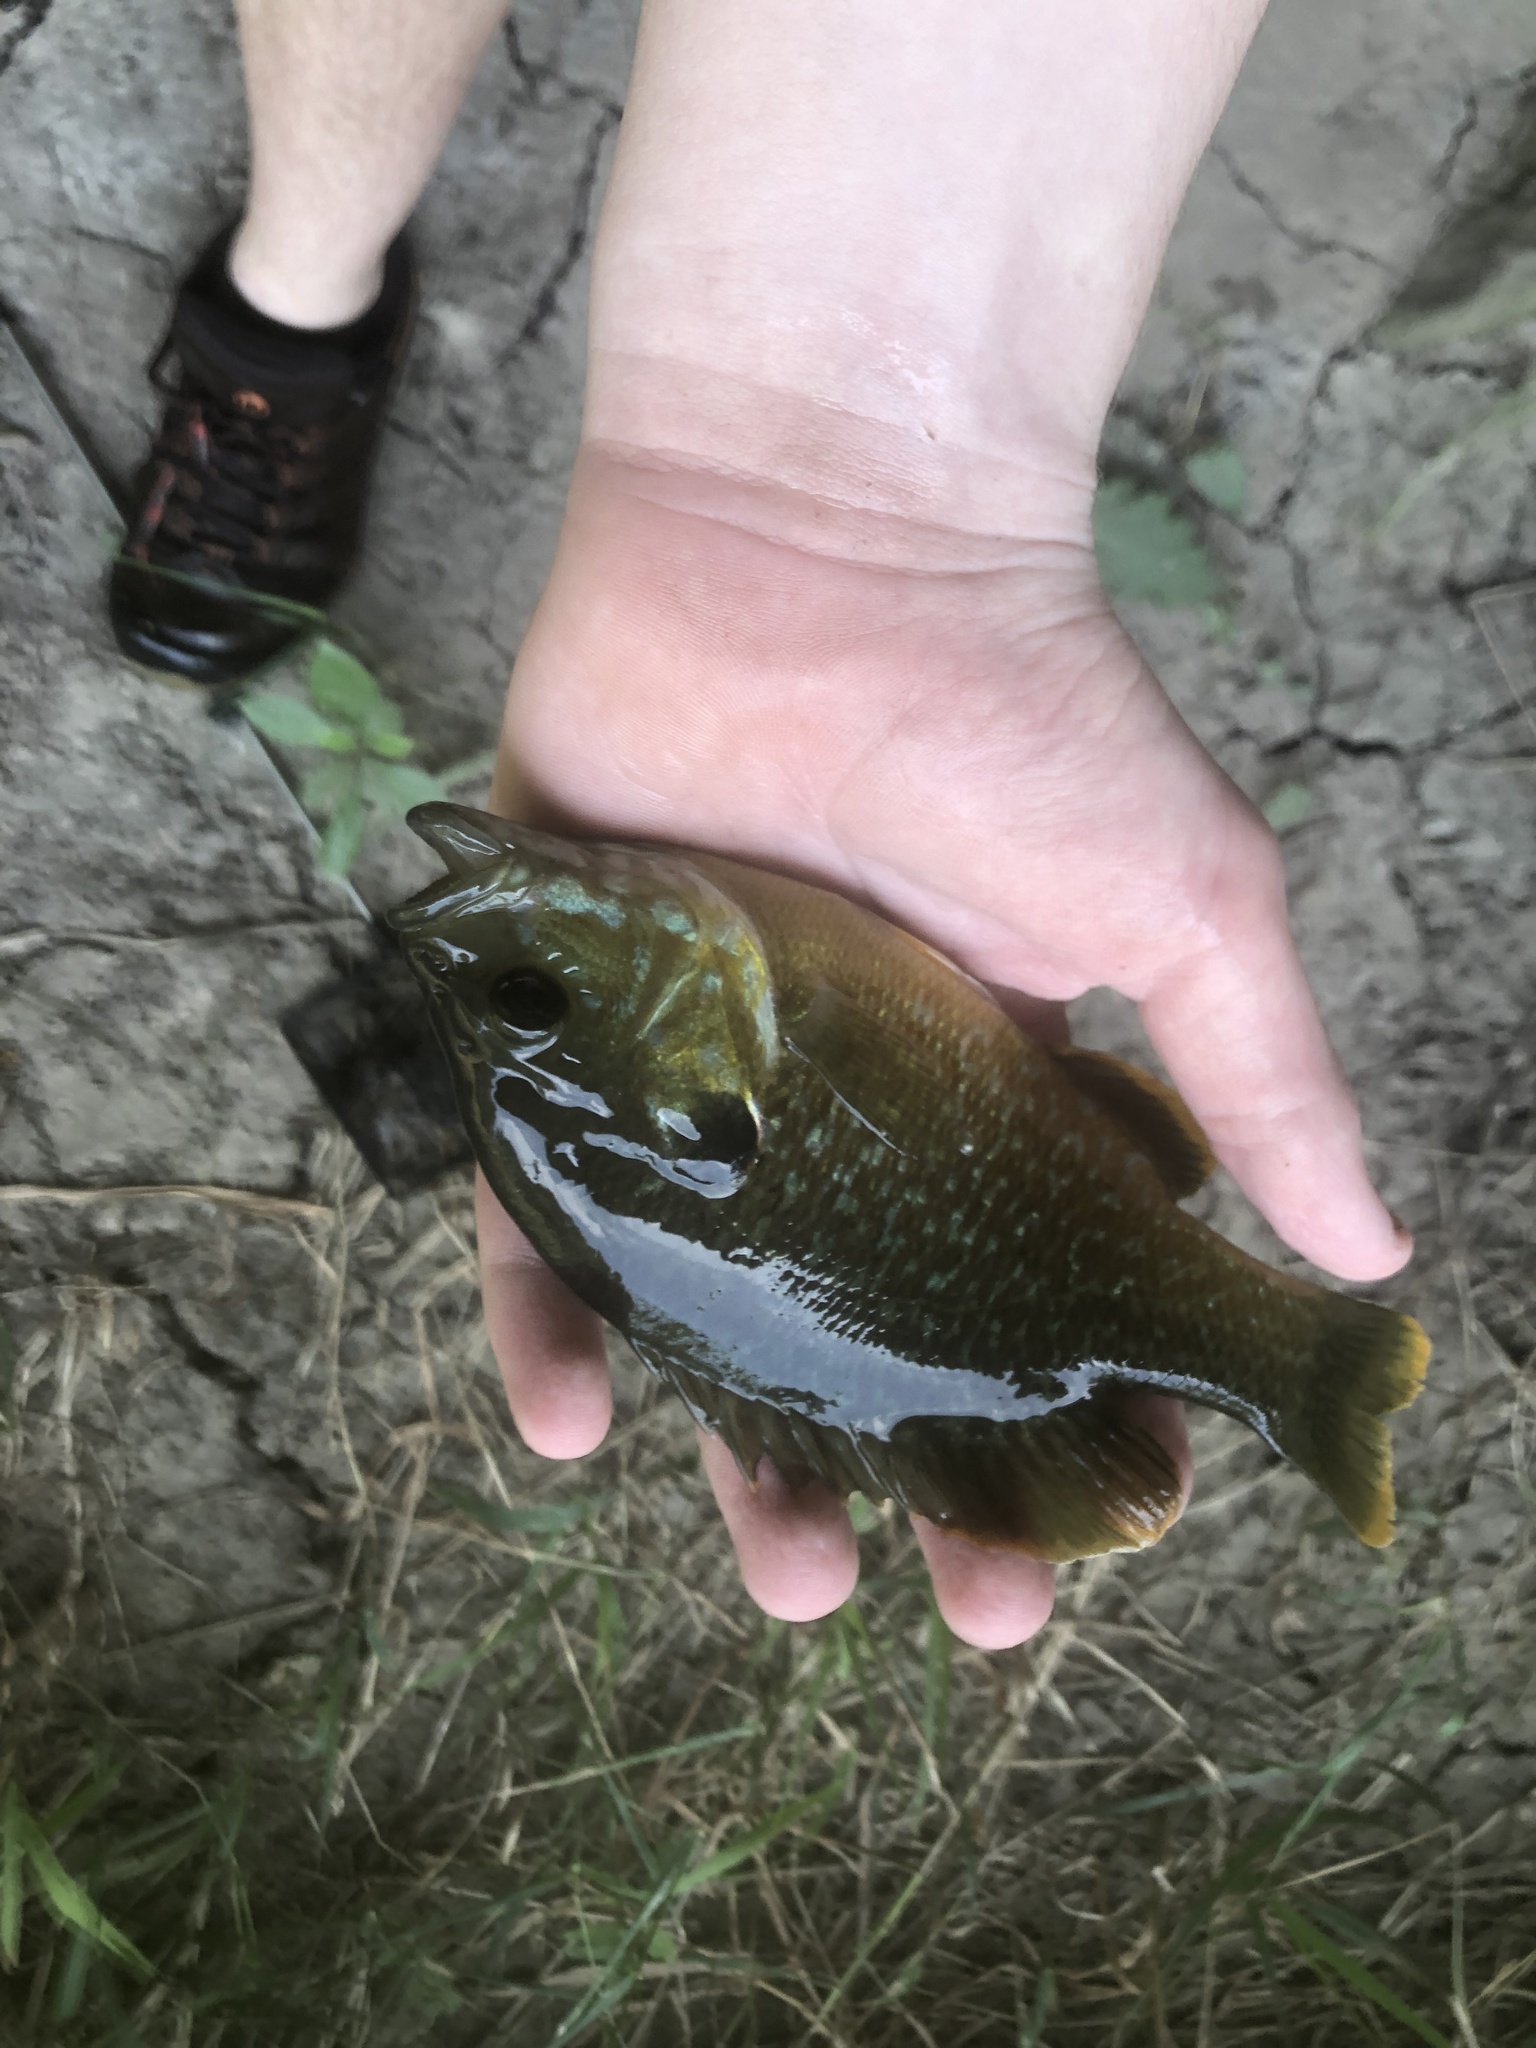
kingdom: Animalia
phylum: Chordata
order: Perciformes
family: Centrarchidae
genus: Lepomis
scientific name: Lepomis
